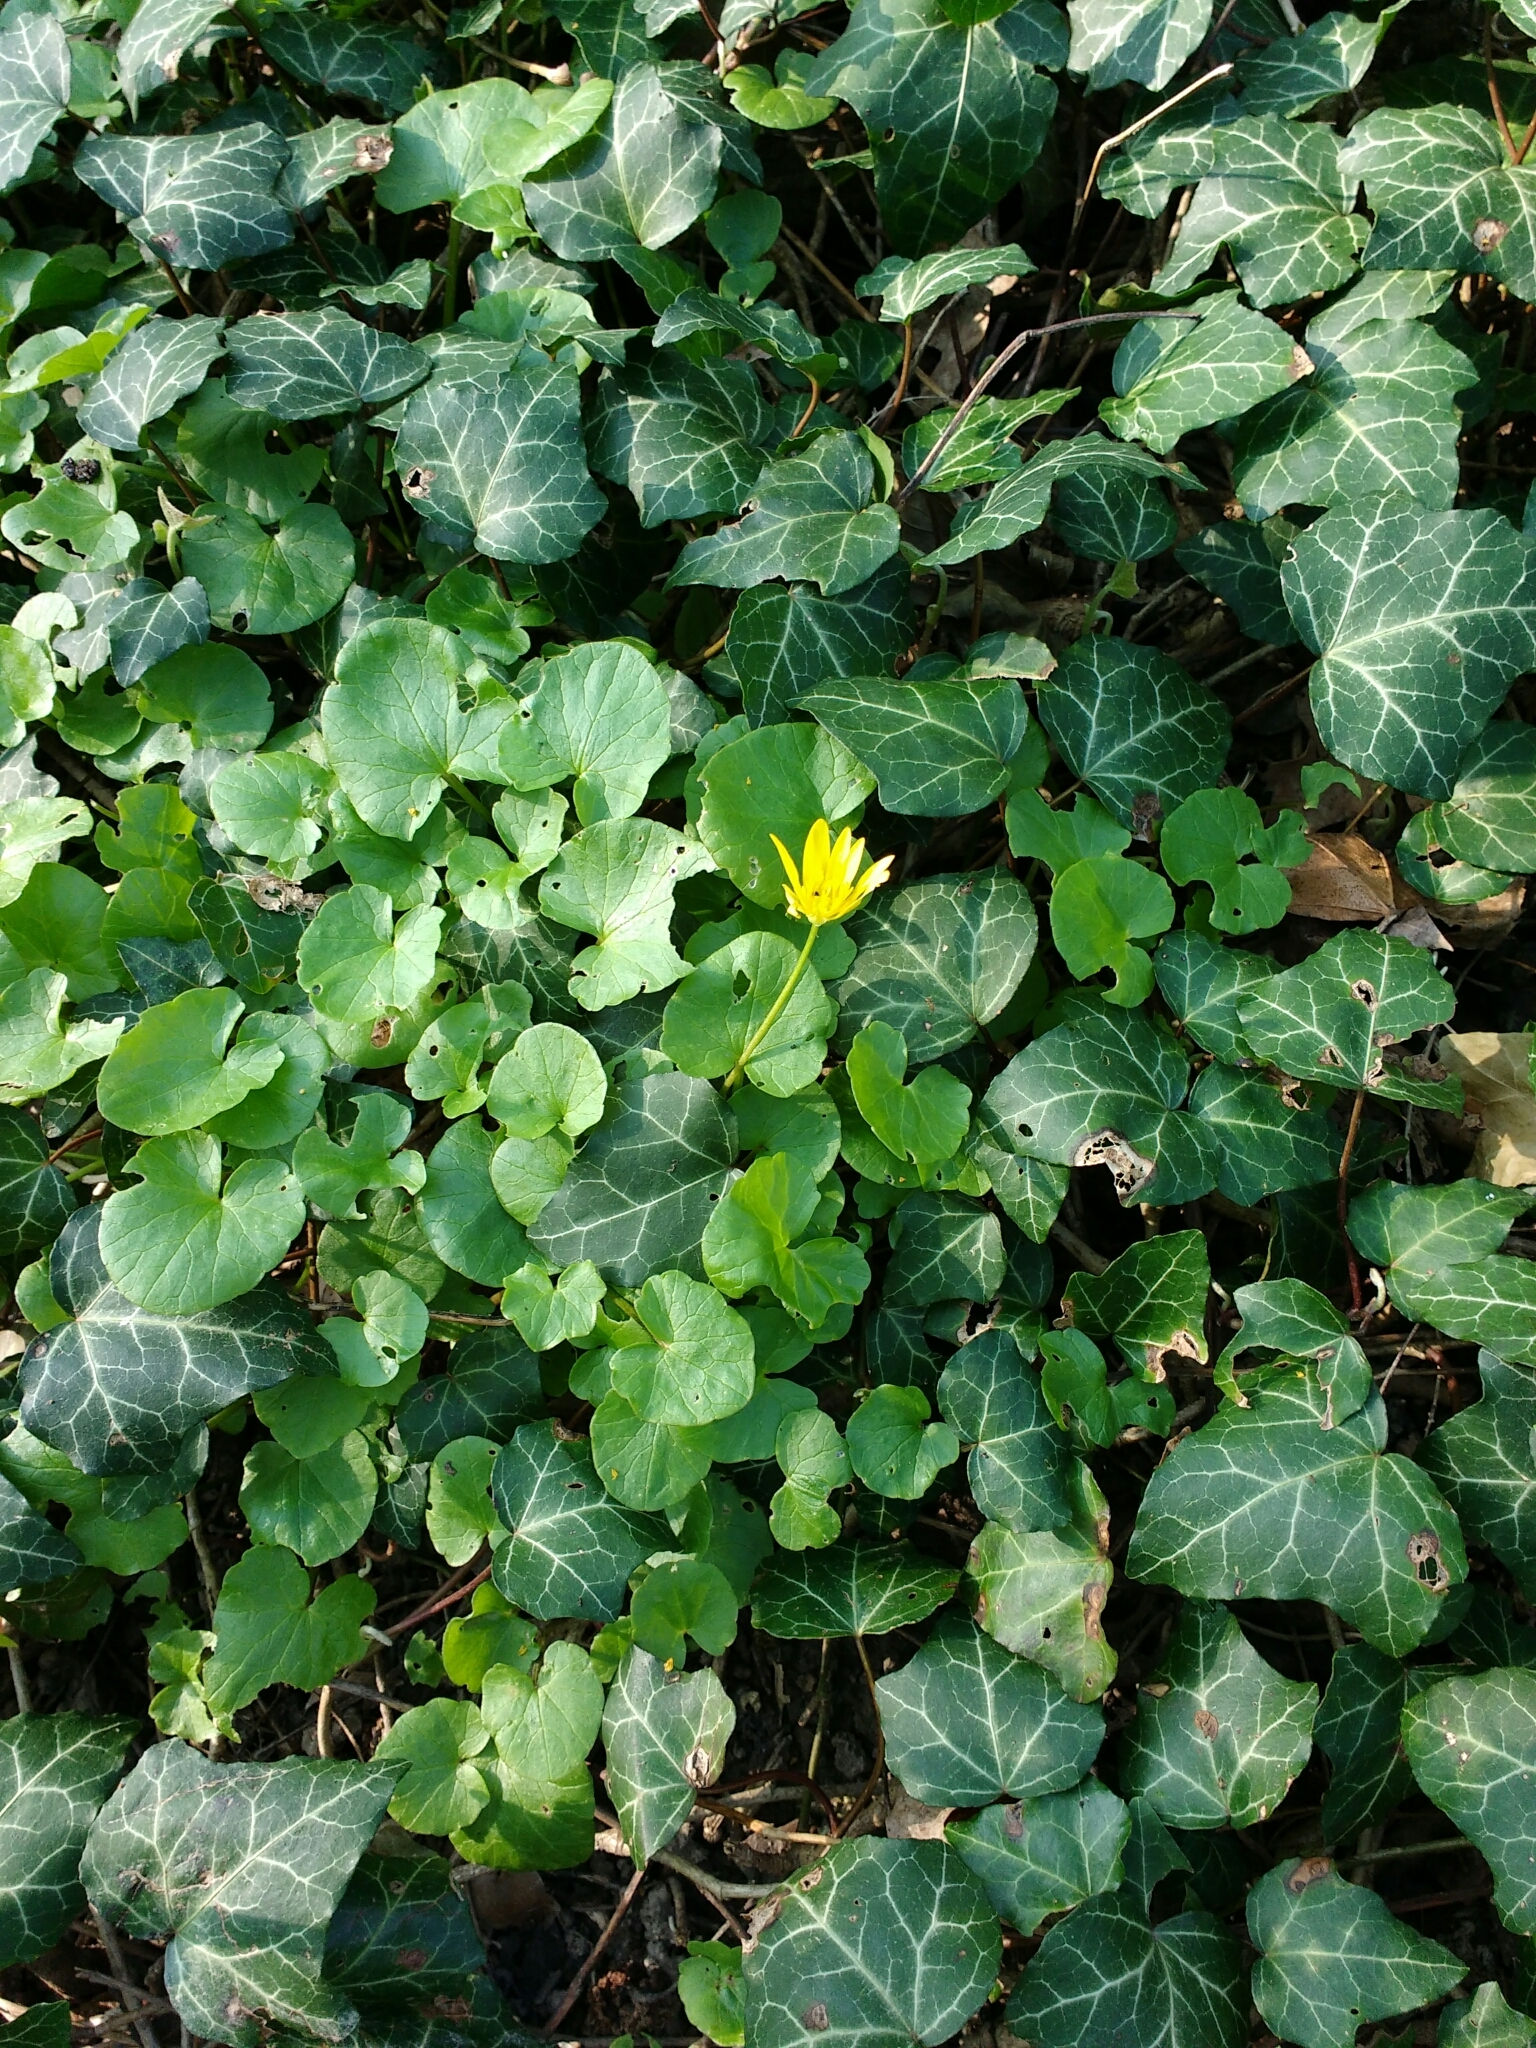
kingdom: Plantae
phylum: Tracheophyta
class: Magnoliopsida
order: Ranunculales
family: Ranunculaceae
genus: Ficaria
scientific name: Ficaria verna
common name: Lesser celandine
